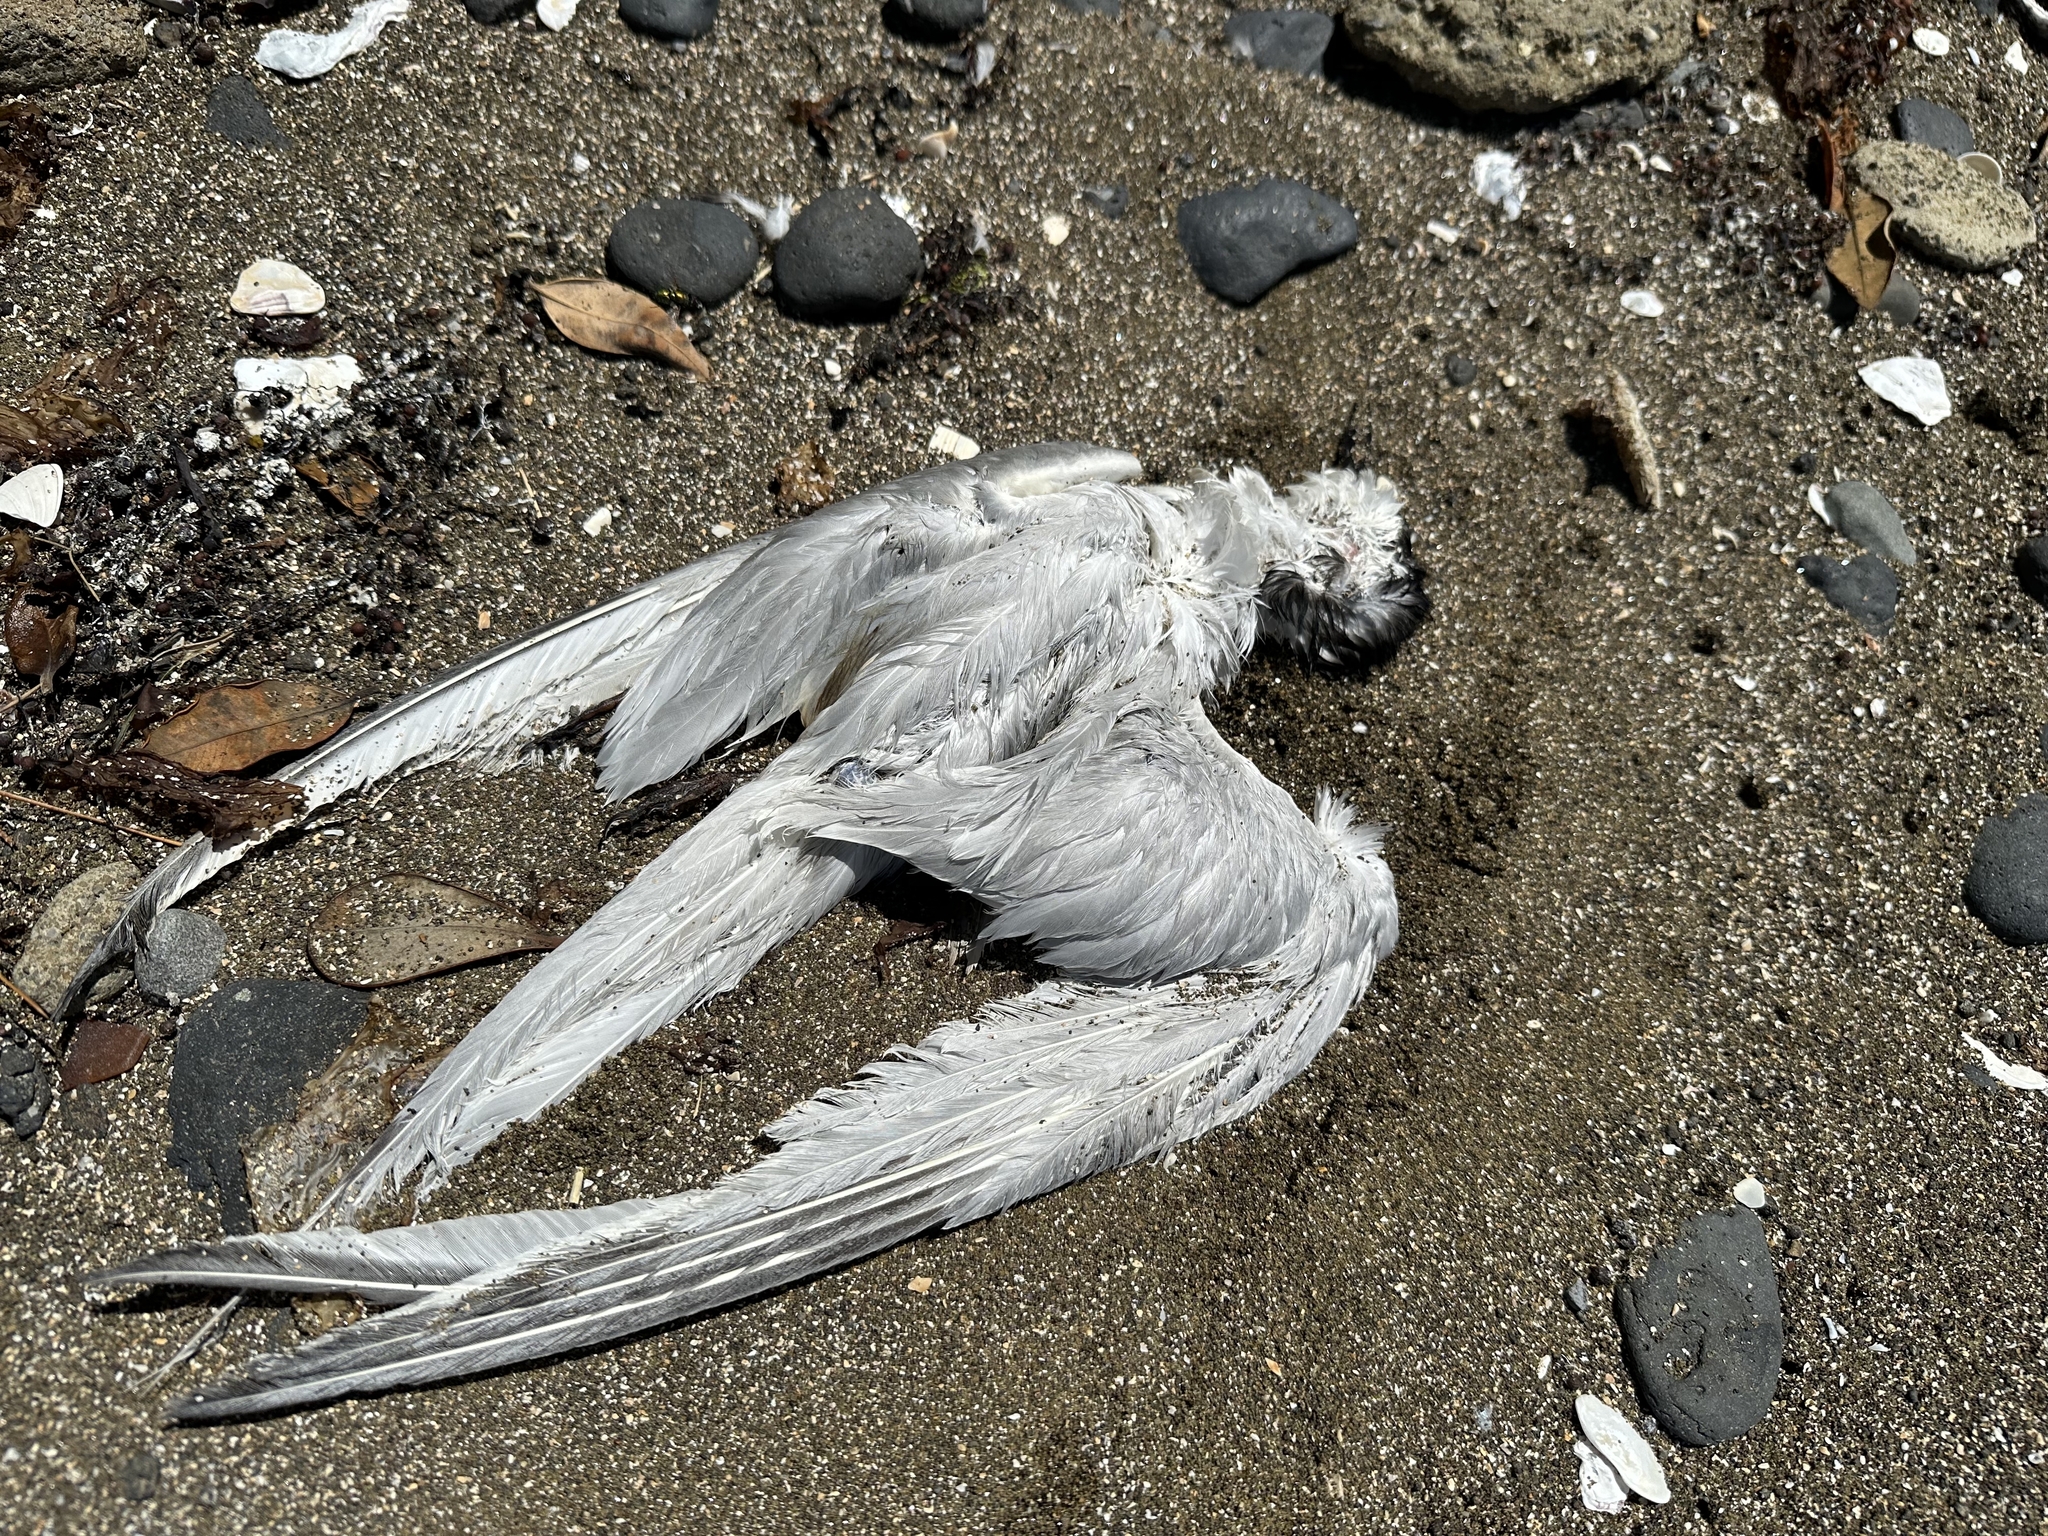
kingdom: Animalia
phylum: Chordata
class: Aves
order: Charadriiformes
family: Laridae
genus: Sterna
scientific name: Sterna striata
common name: White-fronted tern
